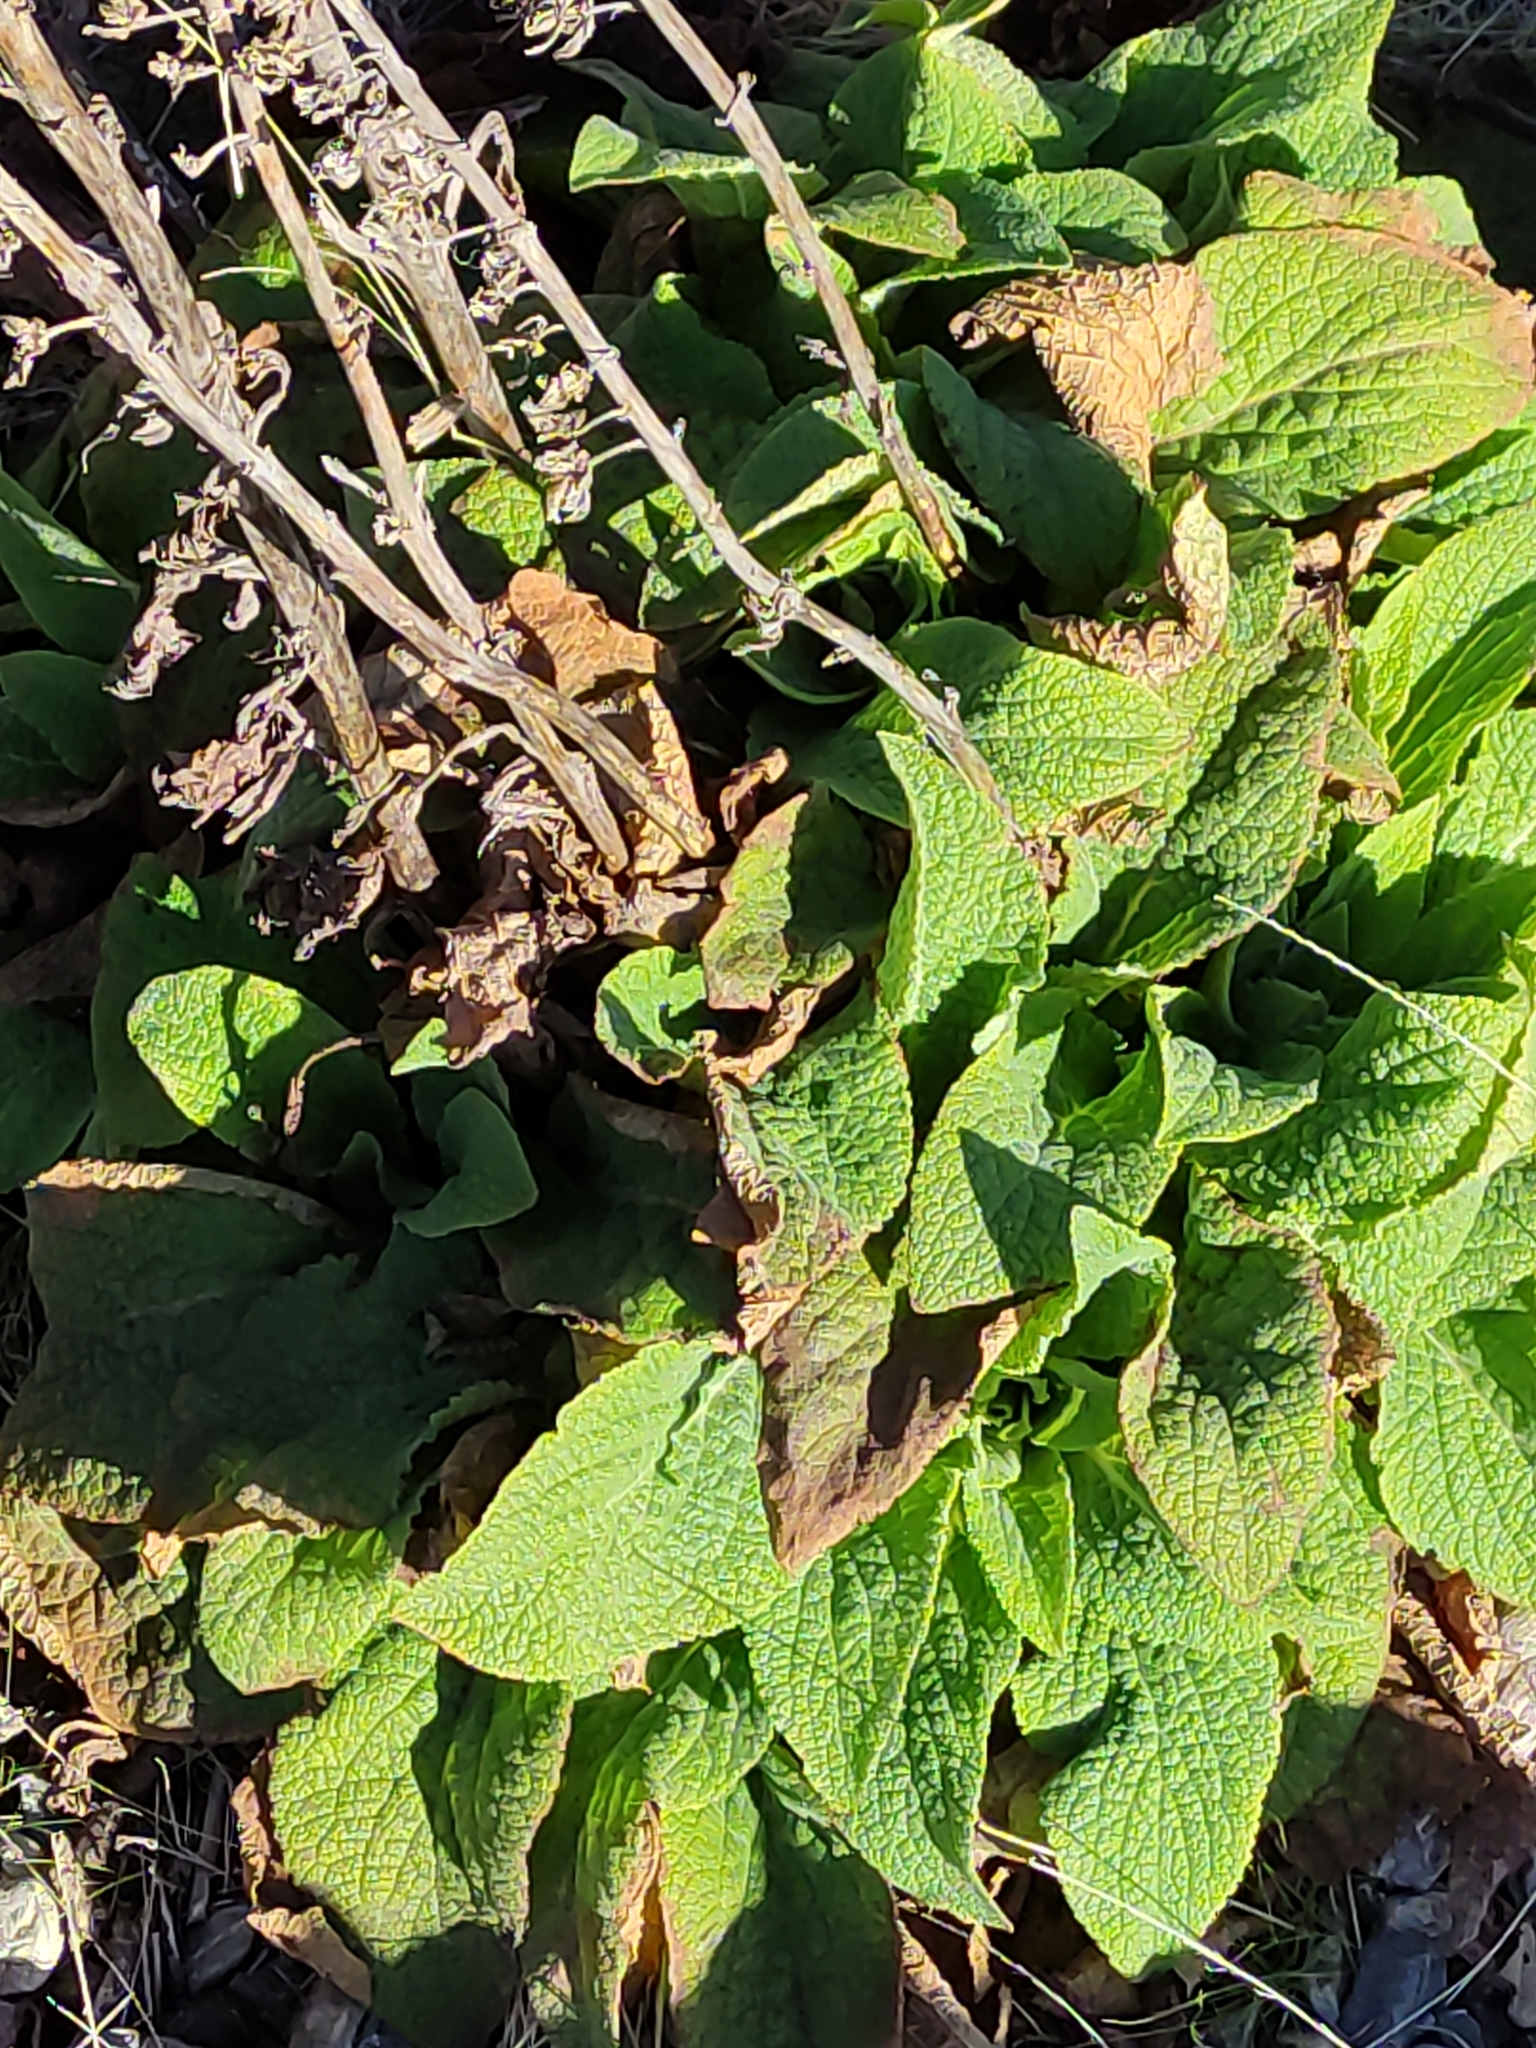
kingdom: Plantae
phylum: Tracheophyta
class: Magnoliopsida
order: Lamiales
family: Plantaginaceae
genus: Digitalis
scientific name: Digitalis purpurea
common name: Foxglove
